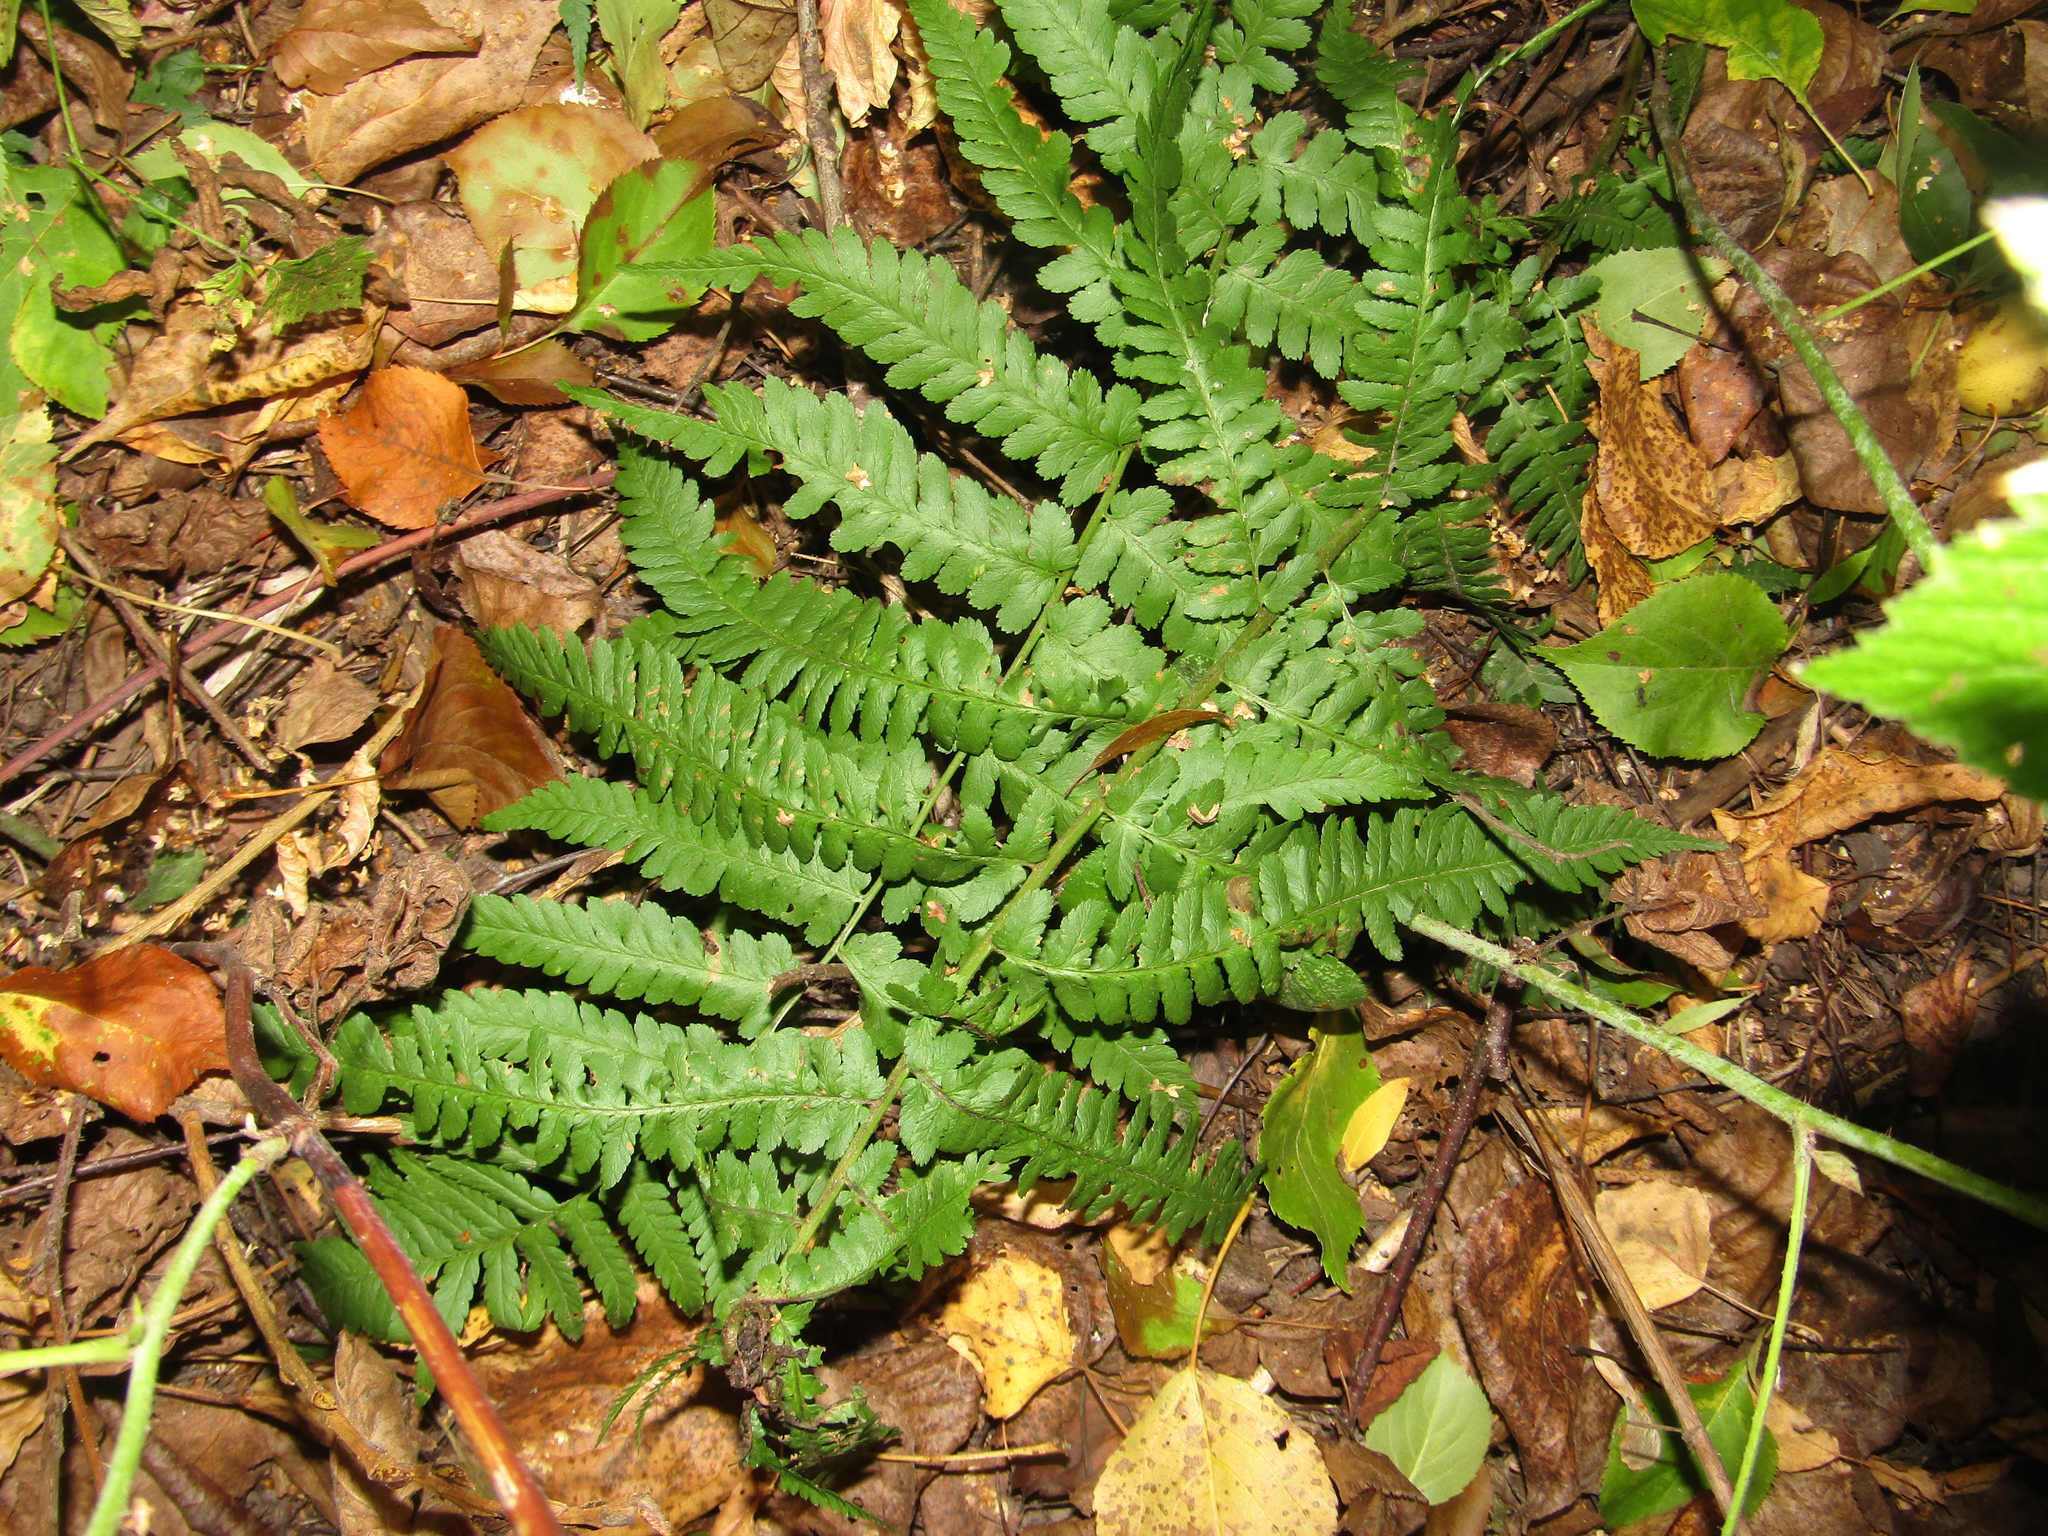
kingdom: Plantae
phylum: Tracheophyta
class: Polypodiopsida
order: Polypodiales
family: Dryopteridaceae
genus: Dryopteris
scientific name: Dryopteris filix-mas
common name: Male fern
